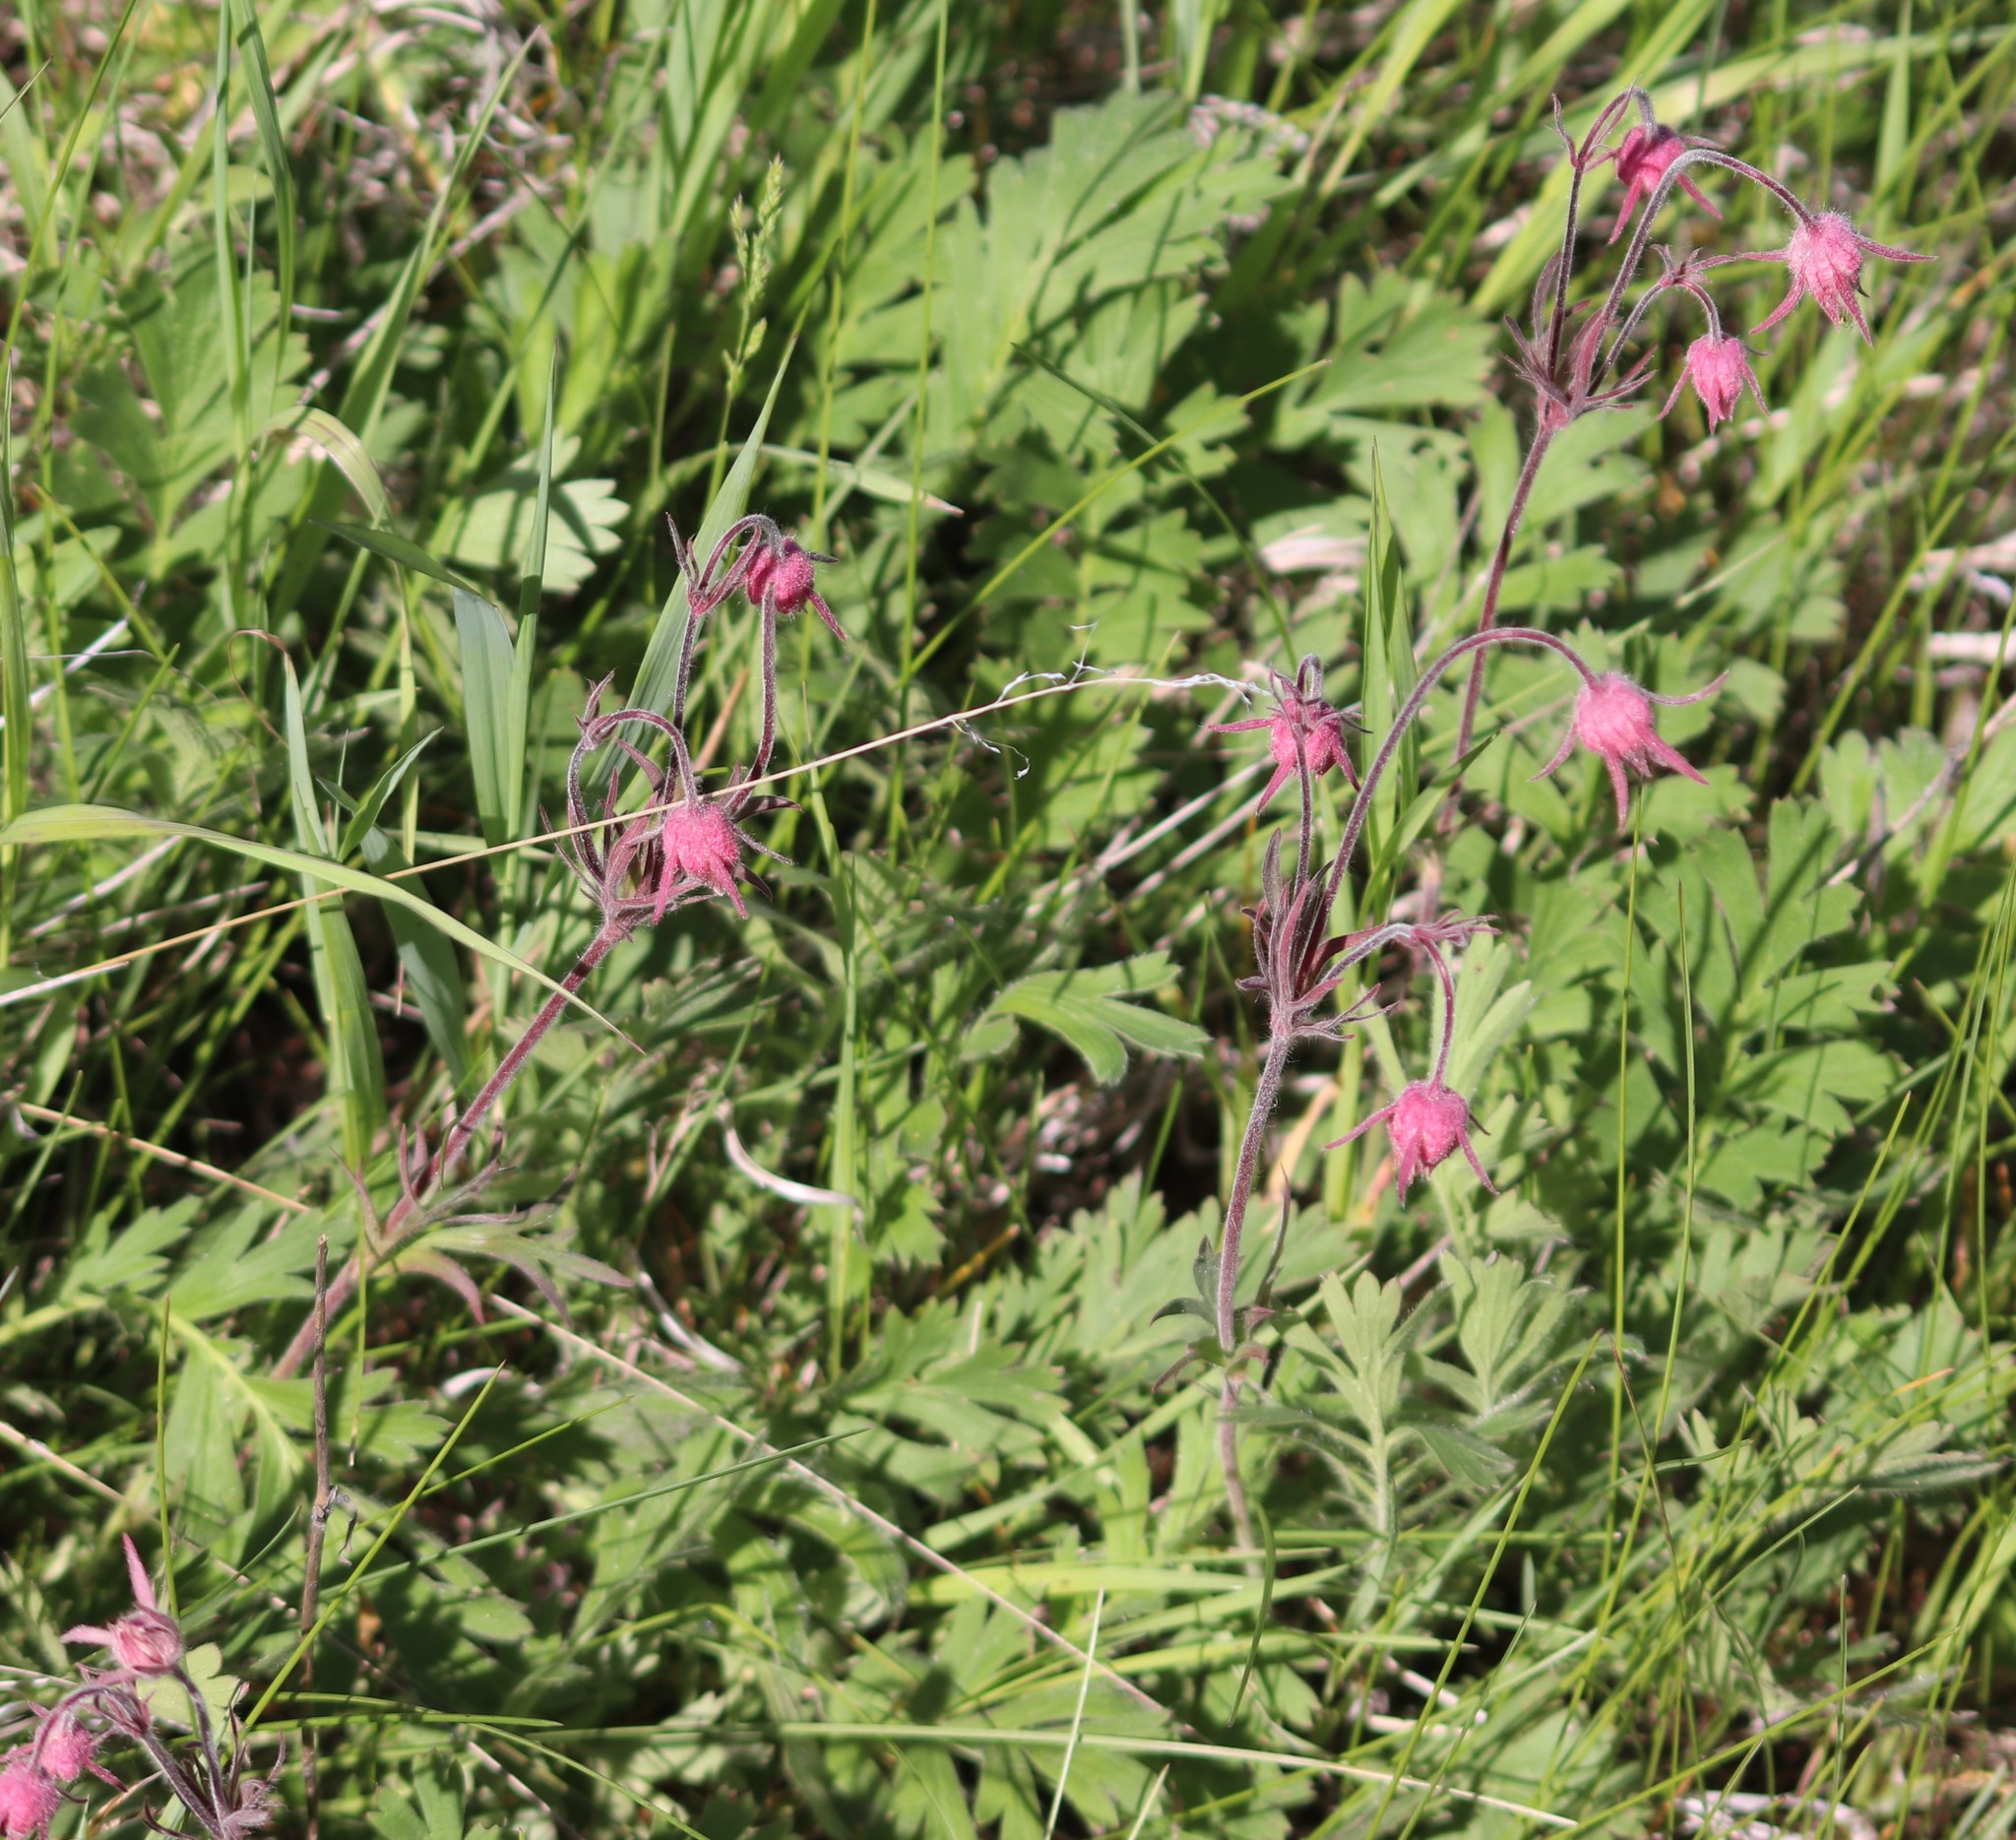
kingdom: Plantae
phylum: Tracheophyta
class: Magnoliopsida
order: Rosales
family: Rosaceae
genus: Geum
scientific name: Geum triflorum
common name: Old man's whiskers
